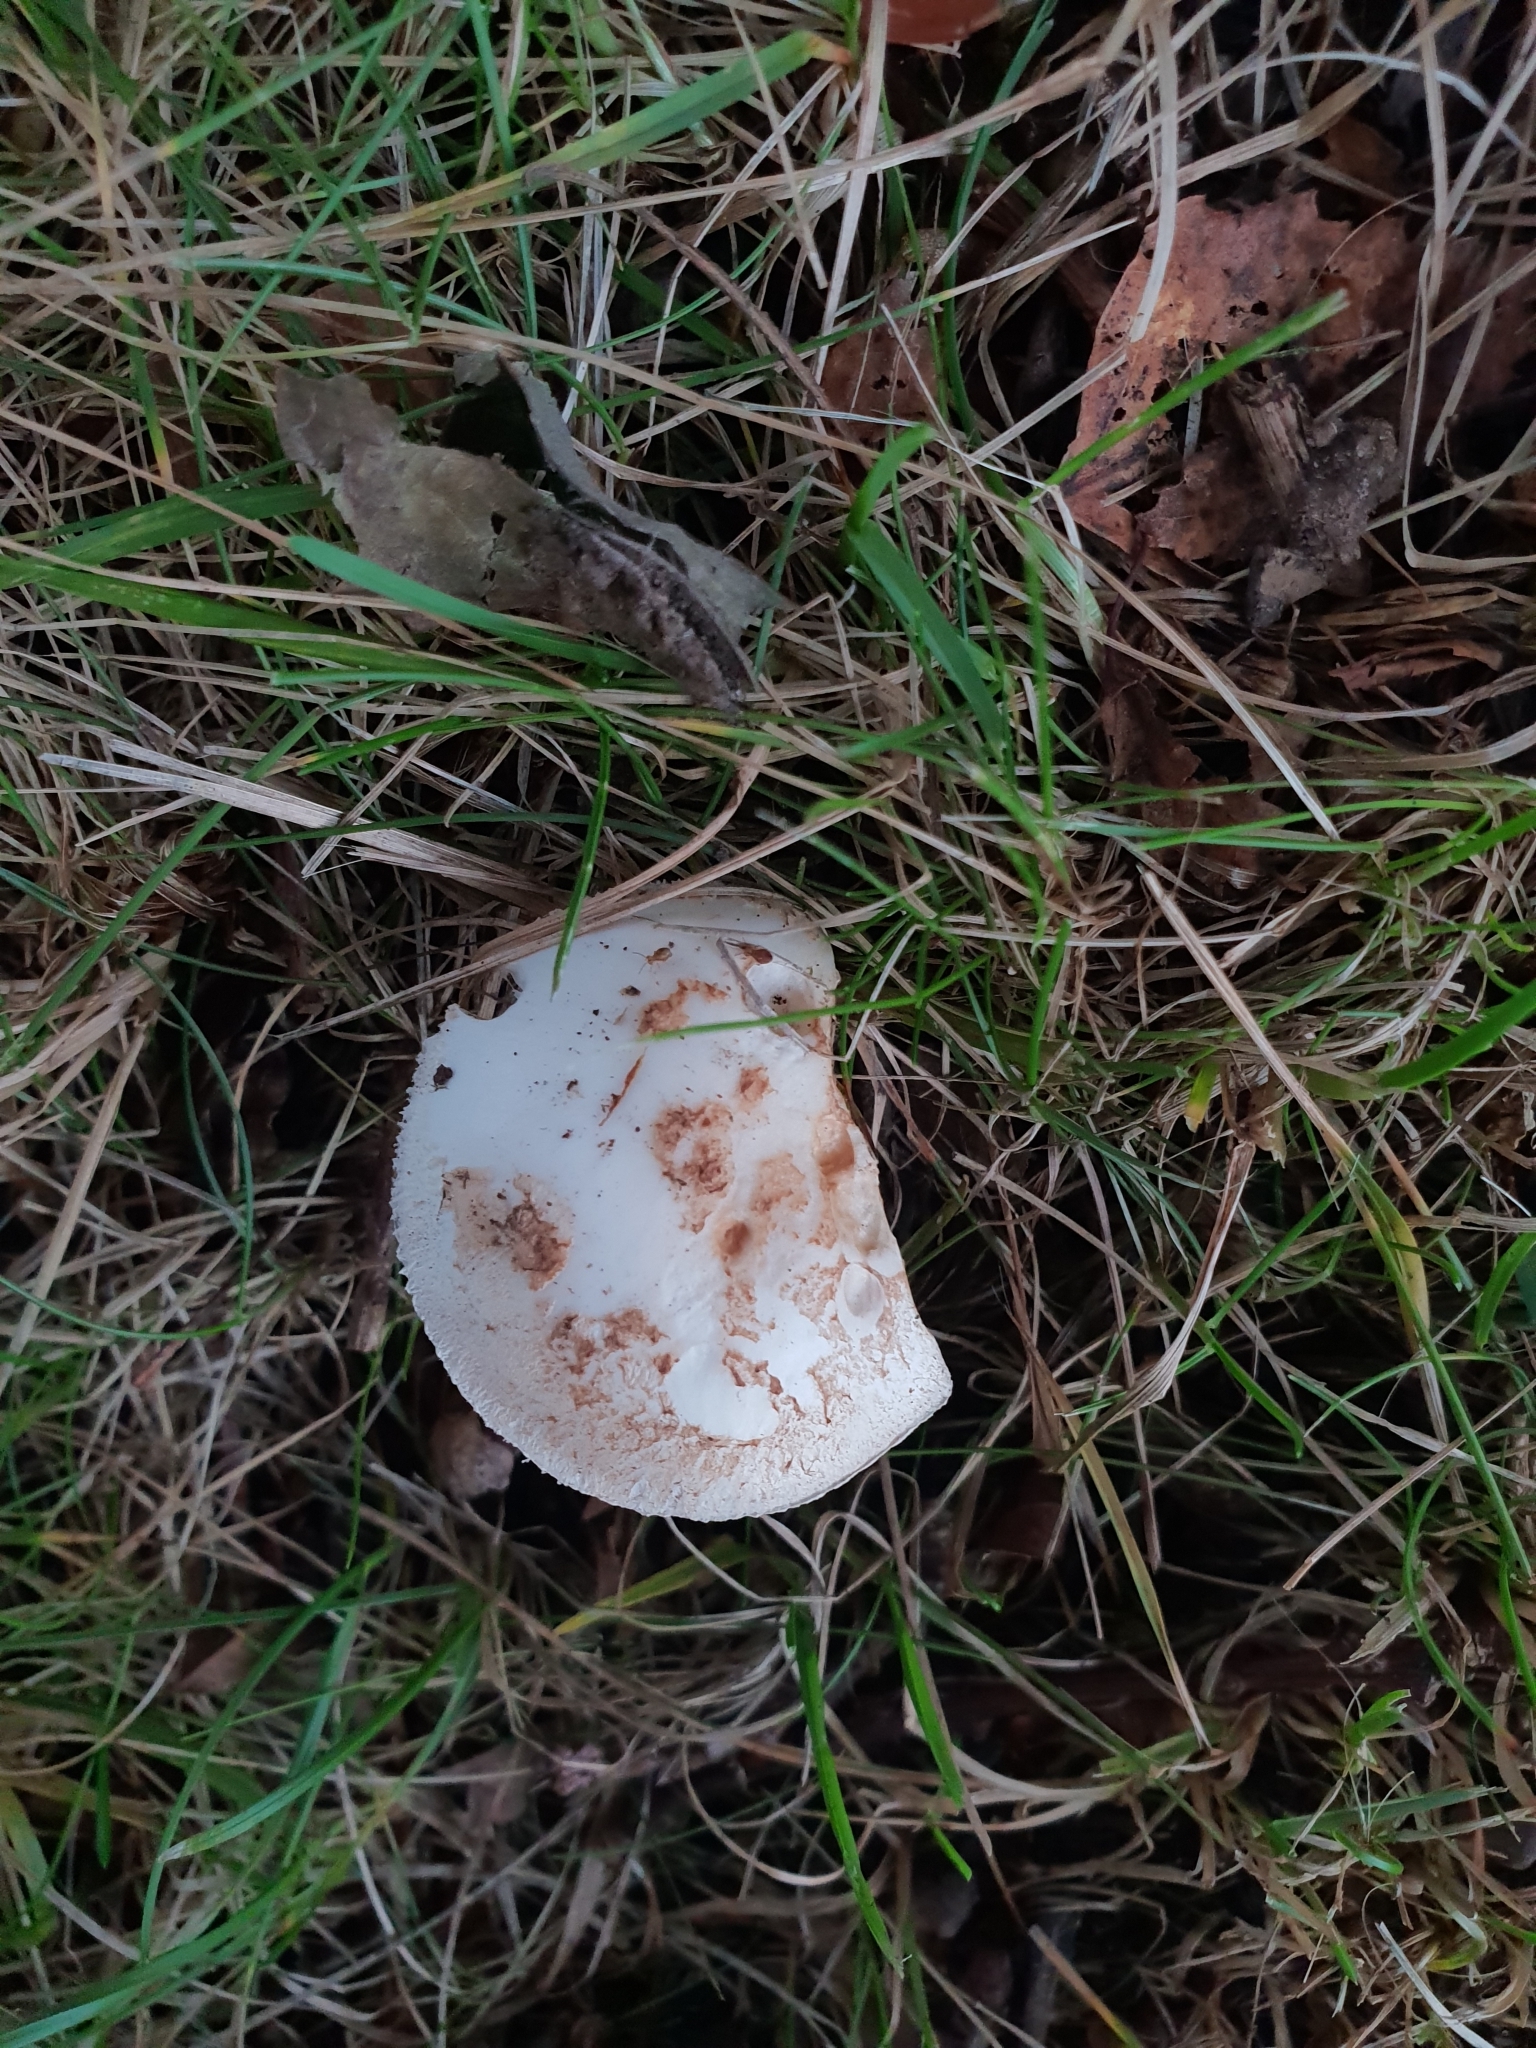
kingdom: Fungi
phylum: Basidiomycota
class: Agaricomycetes
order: Agaricales
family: Amanitaceae
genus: Amanita
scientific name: Amanita citrina
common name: False death-cap
